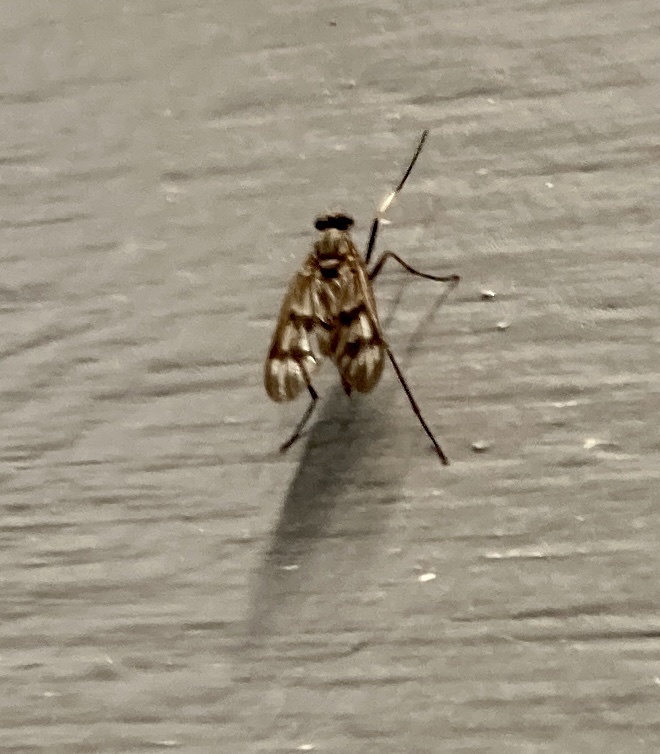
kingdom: Animalia
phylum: Arthropoda
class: Insecta
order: Diptera
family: Rhagionidae
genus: Rhagio
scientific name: Rhagio mystaceus
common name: Common snipe fly
